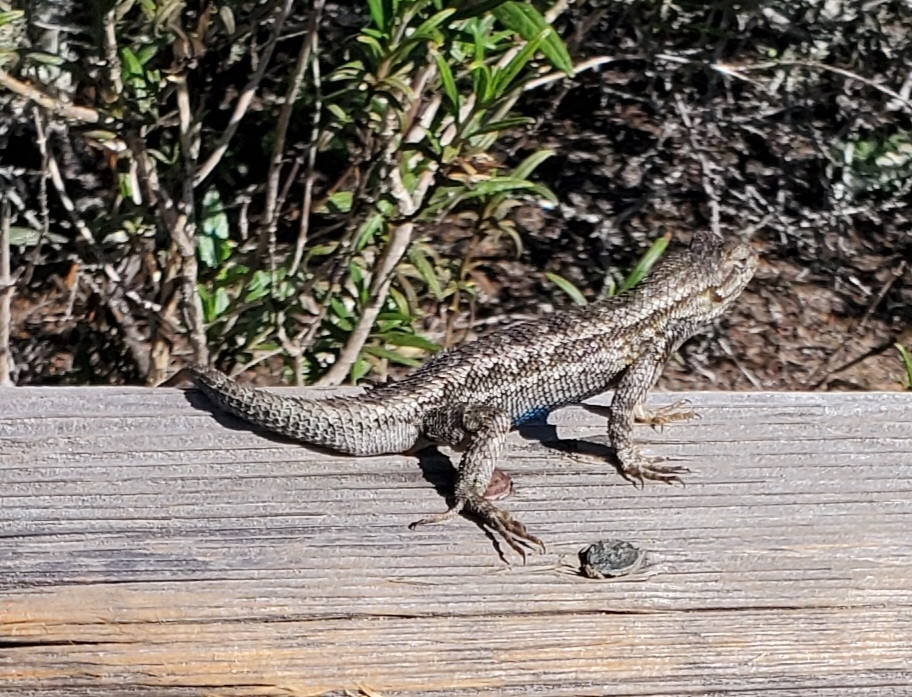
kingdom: Animalia
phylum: Chordata
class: Squamata
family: Phrynosomatidae
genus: Sceloporus
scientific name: Sceloporus occidentalis
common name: Western fence lizard
